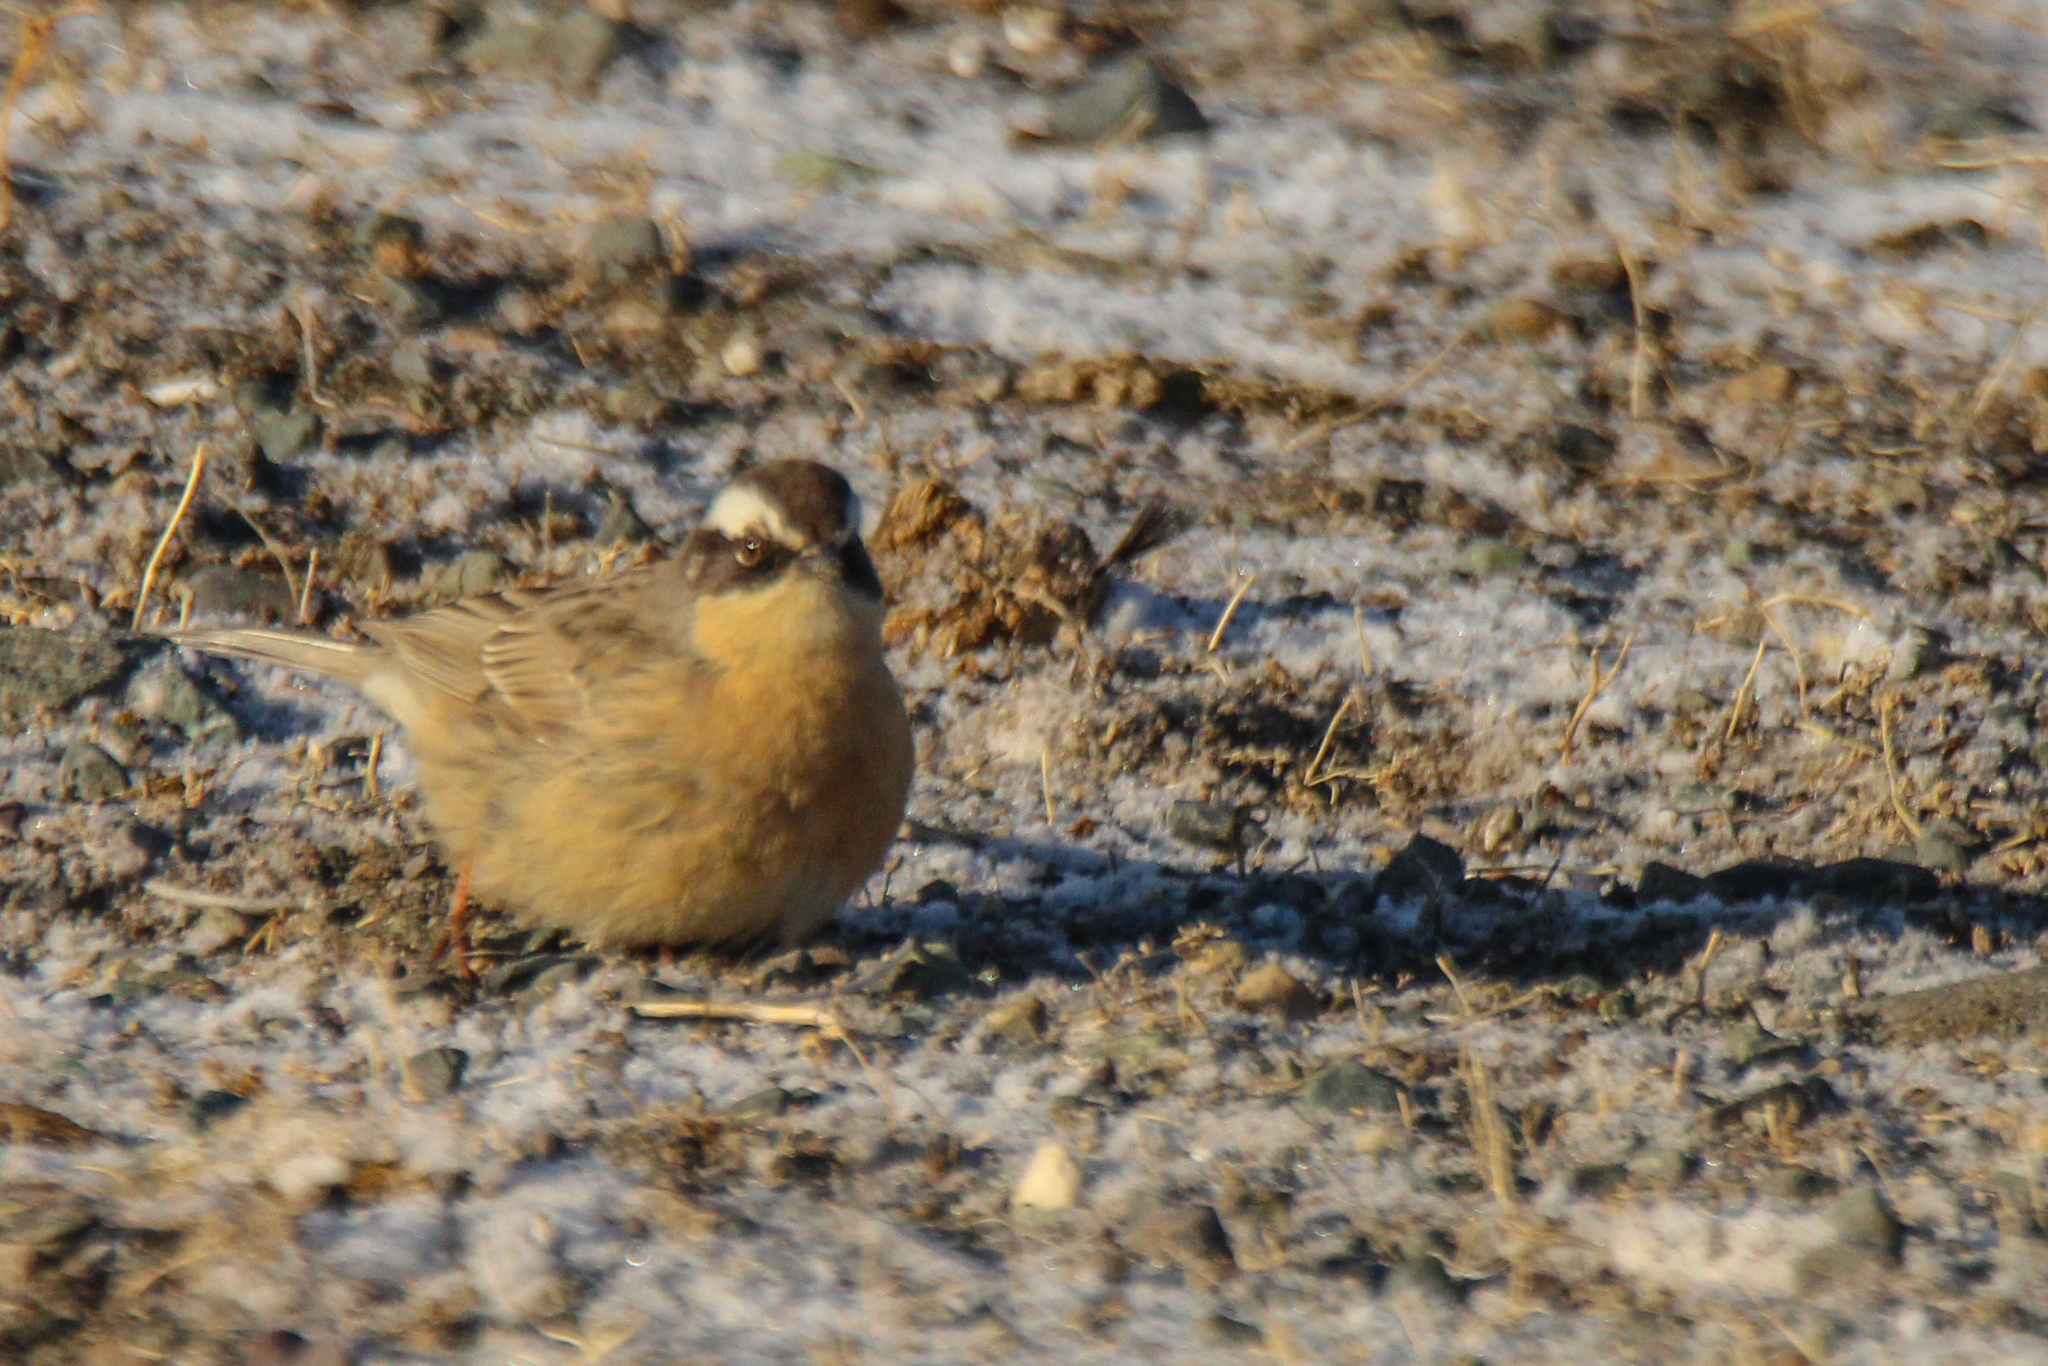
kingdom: Animalia
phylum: Chordata
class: Aves
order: Passeriformes
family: Prunellidae
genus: Prunella
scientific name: Prunella fulvescens
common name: Brown accentor
